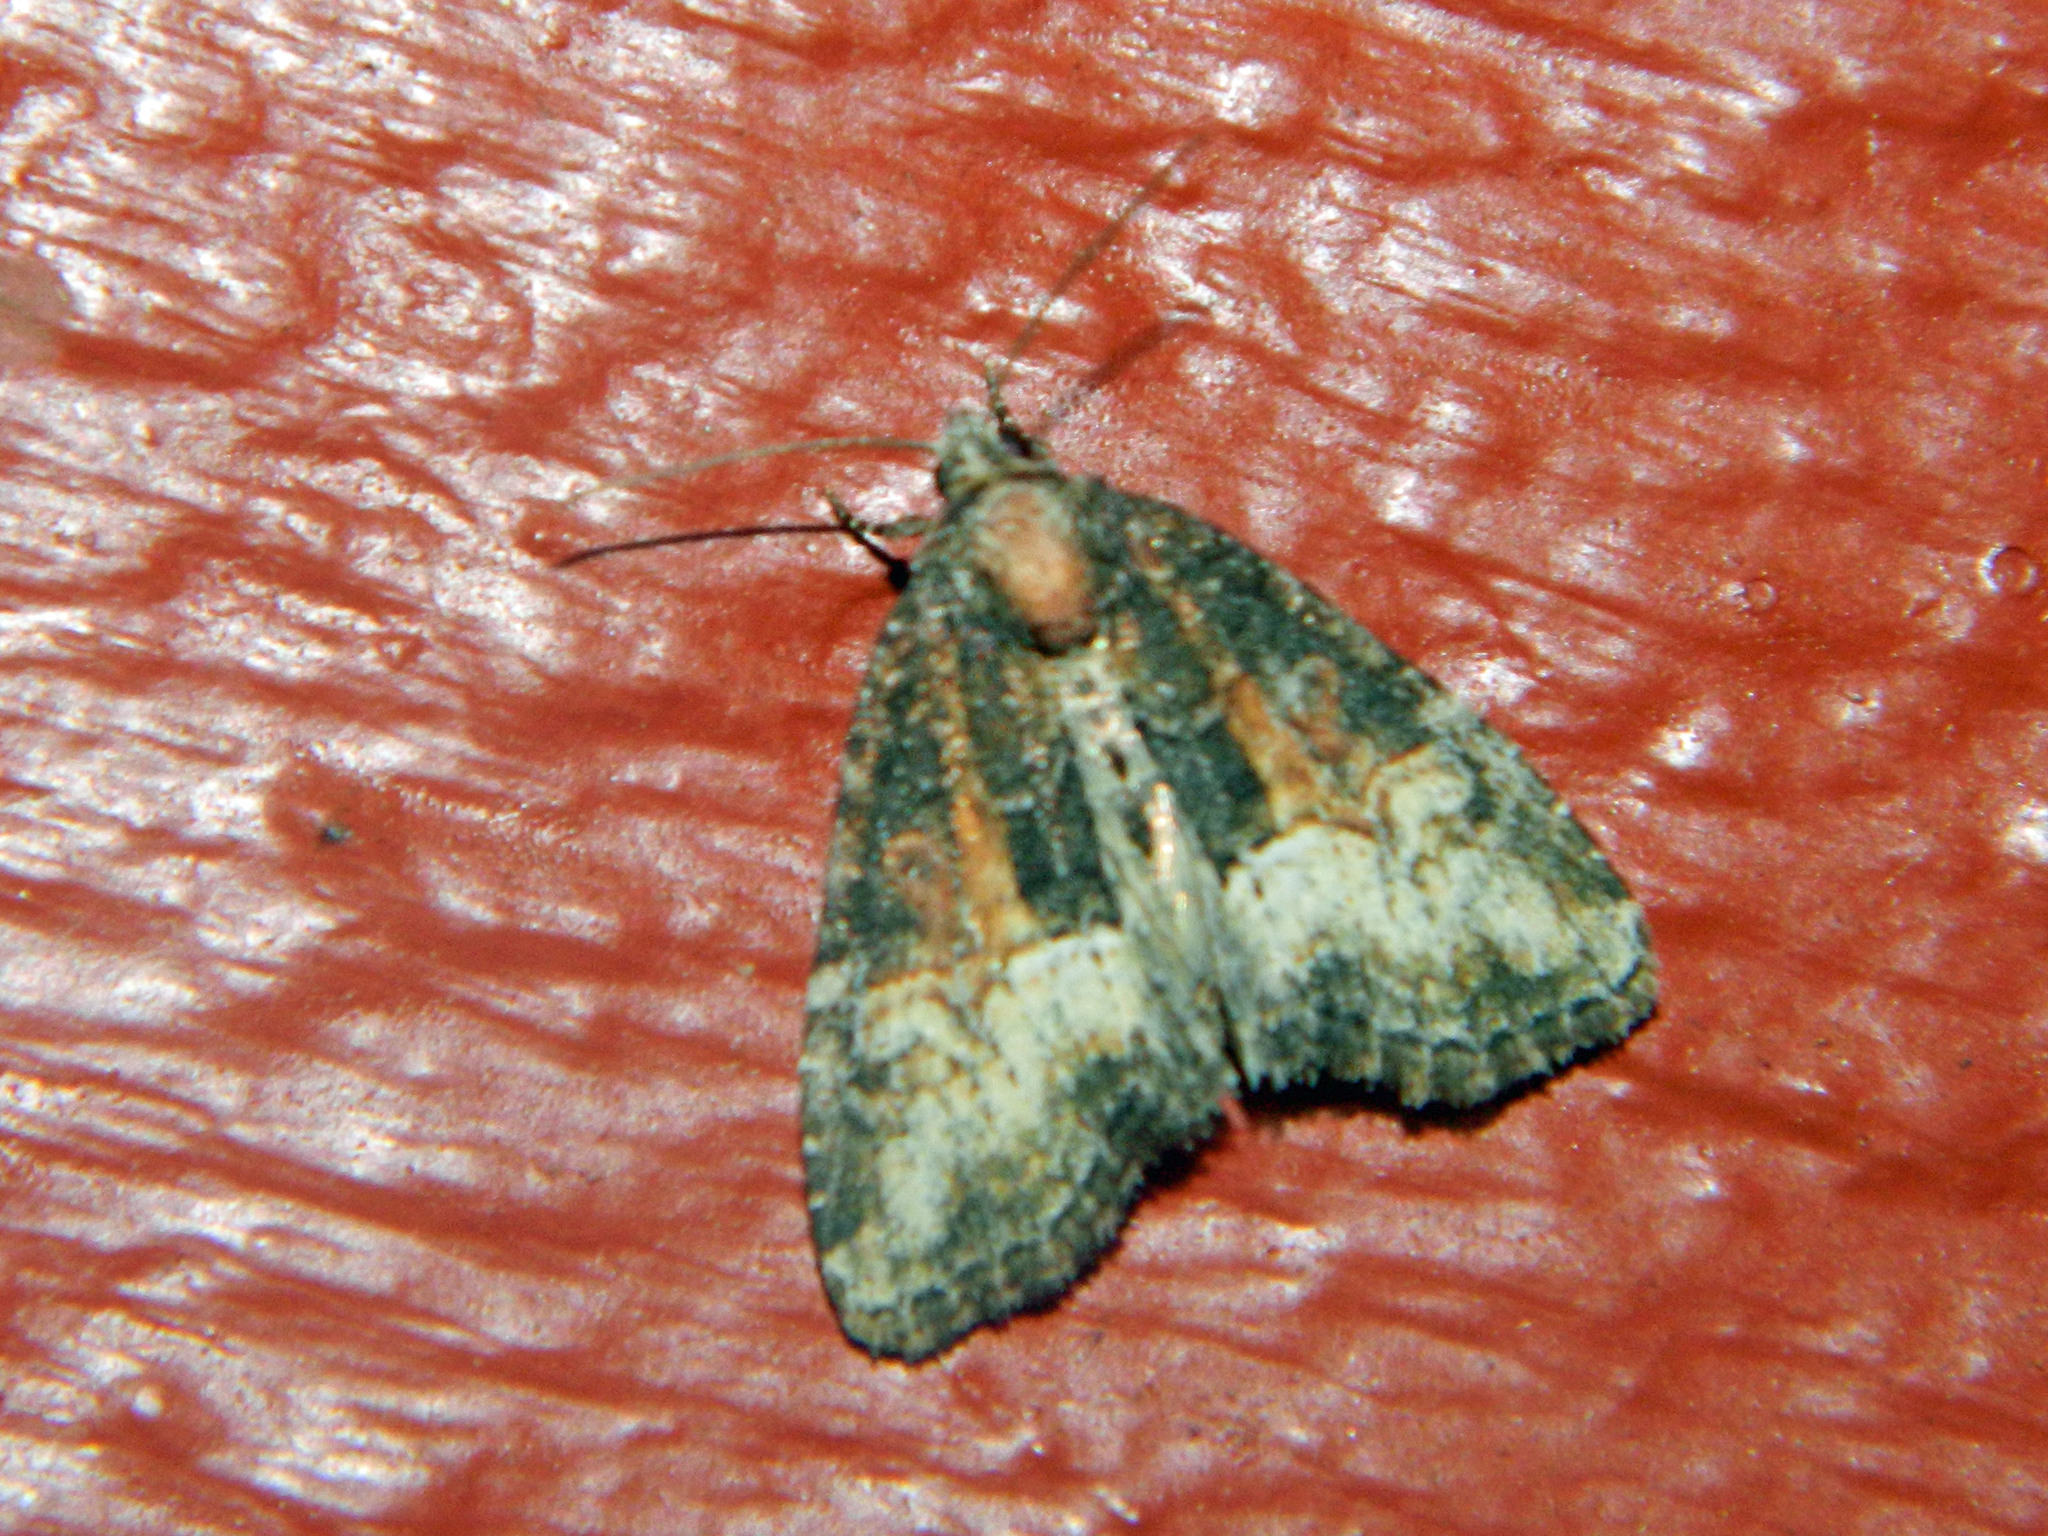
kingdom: Animalia
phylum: Arthropoda
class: Insecta
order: Lepidoptera
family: Noctuidae
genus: Neoligia
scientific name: Neoligia subjuncta
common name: Connected brocade
